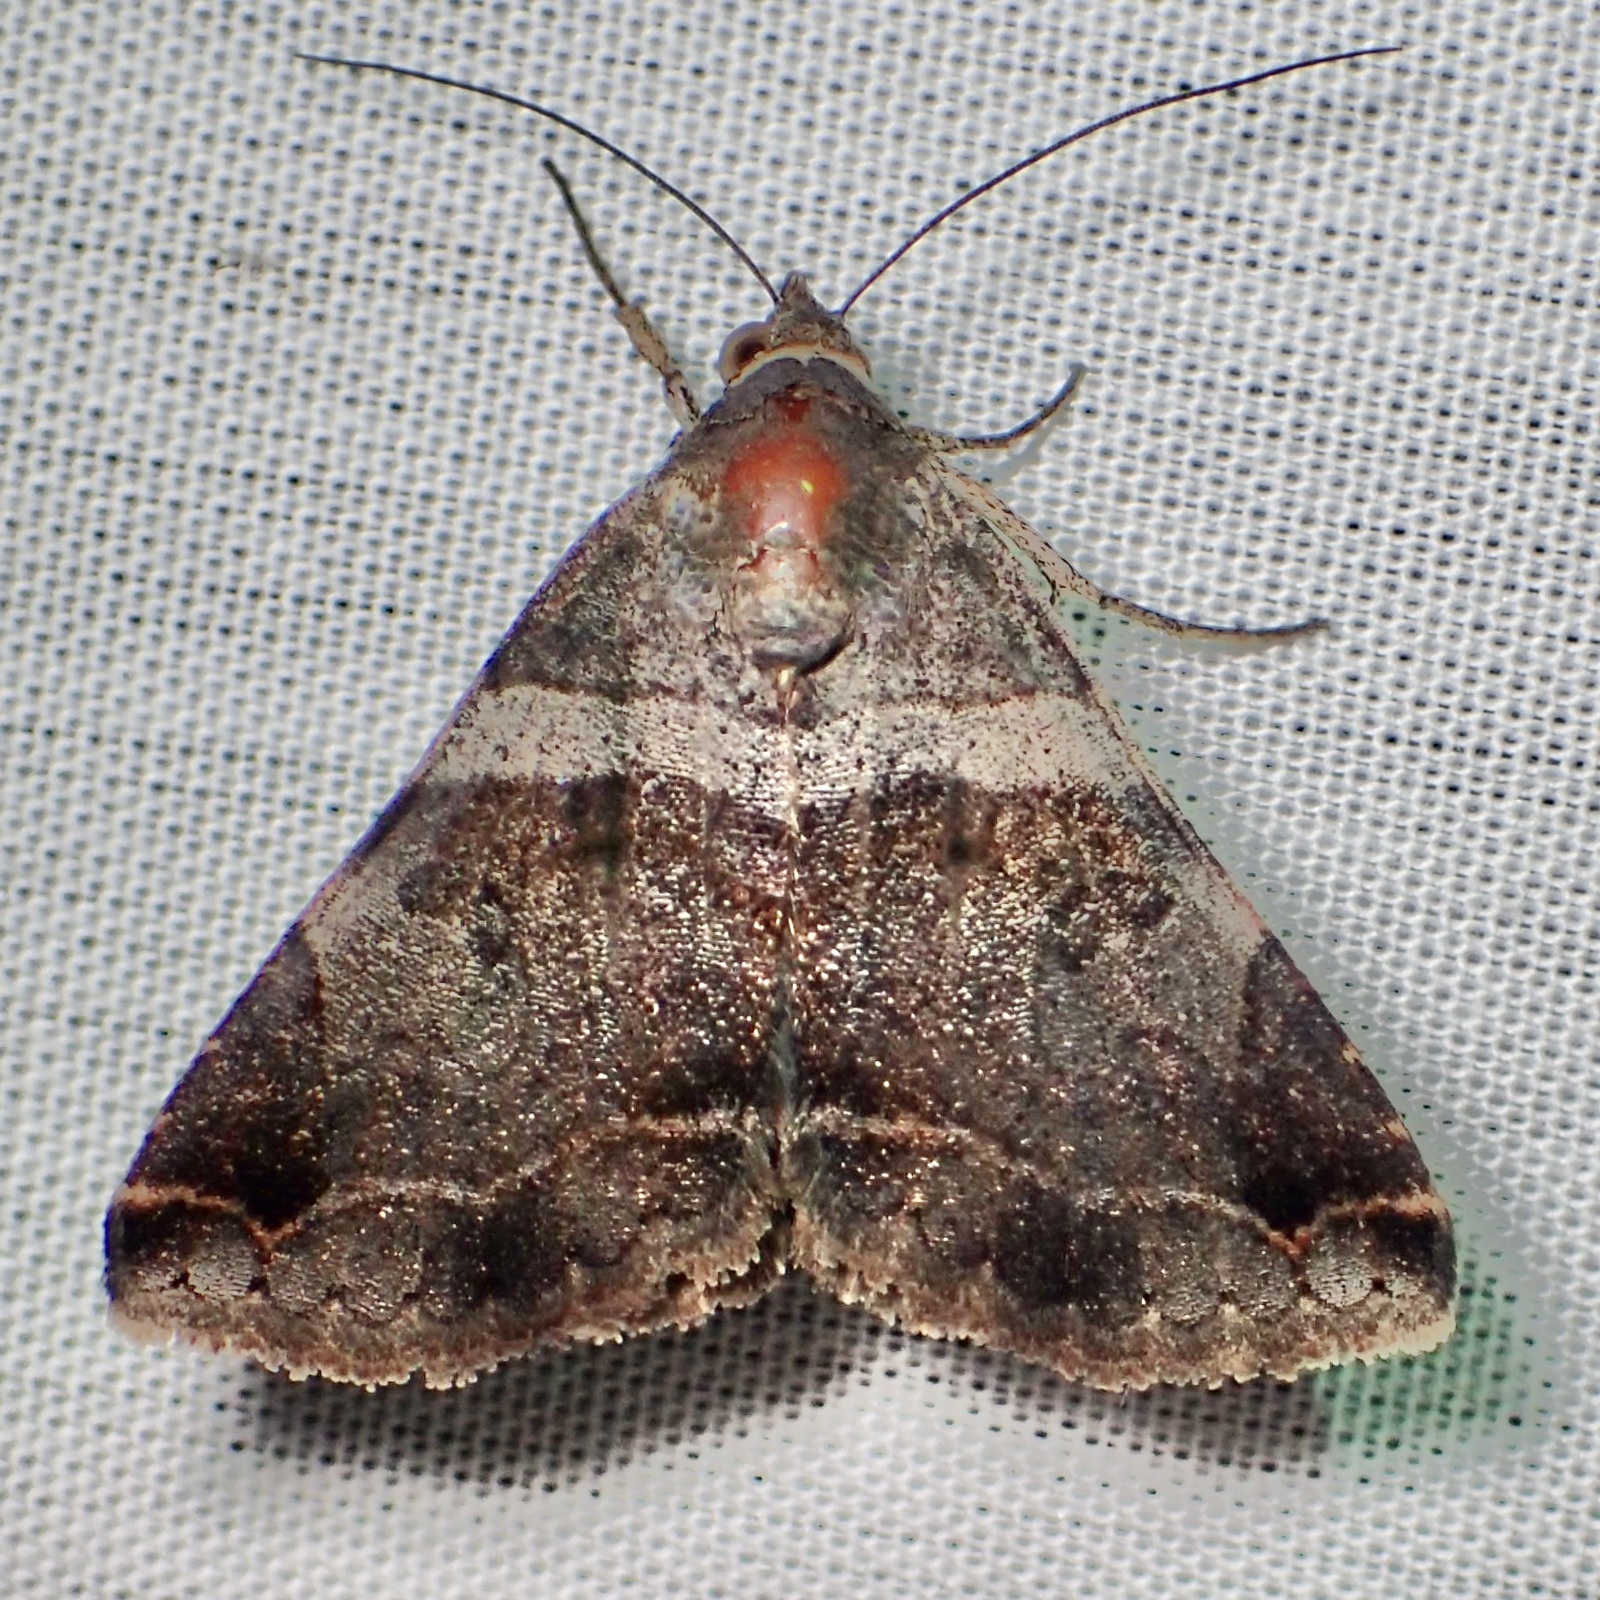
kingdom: Animalia
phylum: Arthropoda
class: Insecta
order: Lepidoptera
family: Erebidae
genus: Panula
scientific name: Panula inconstans
